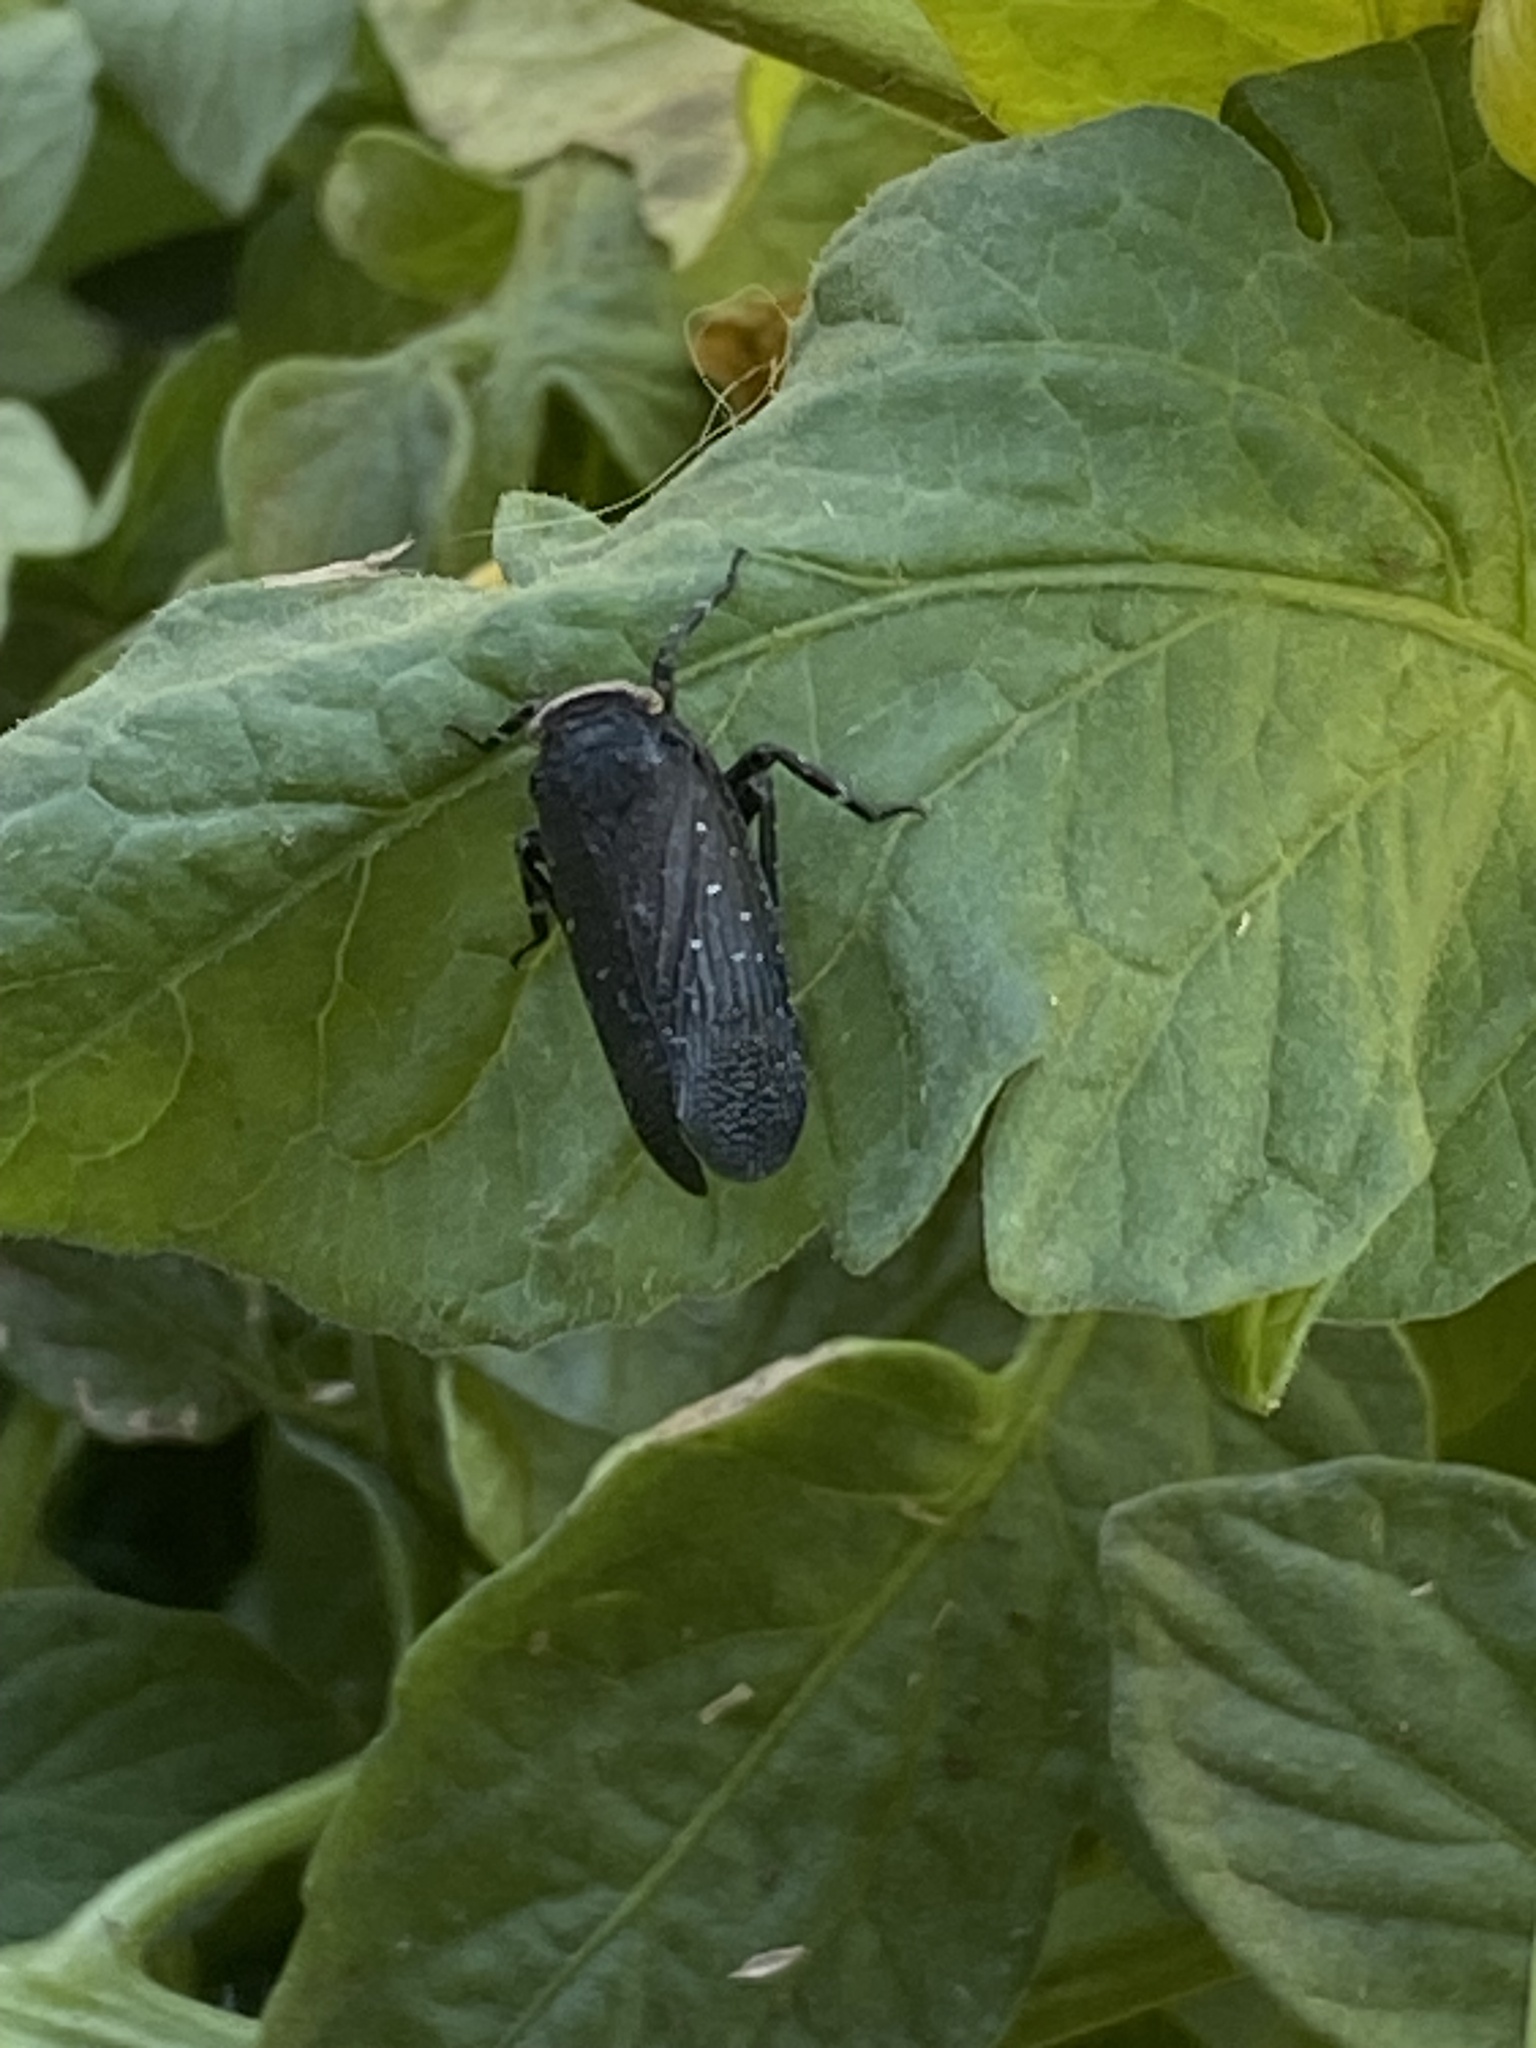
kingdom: Animalia
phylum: Arthropoda
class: Insecta
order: Hemiptera
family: Fulgoridae
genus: Crepusia
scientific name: Crepusia fuliginosa
